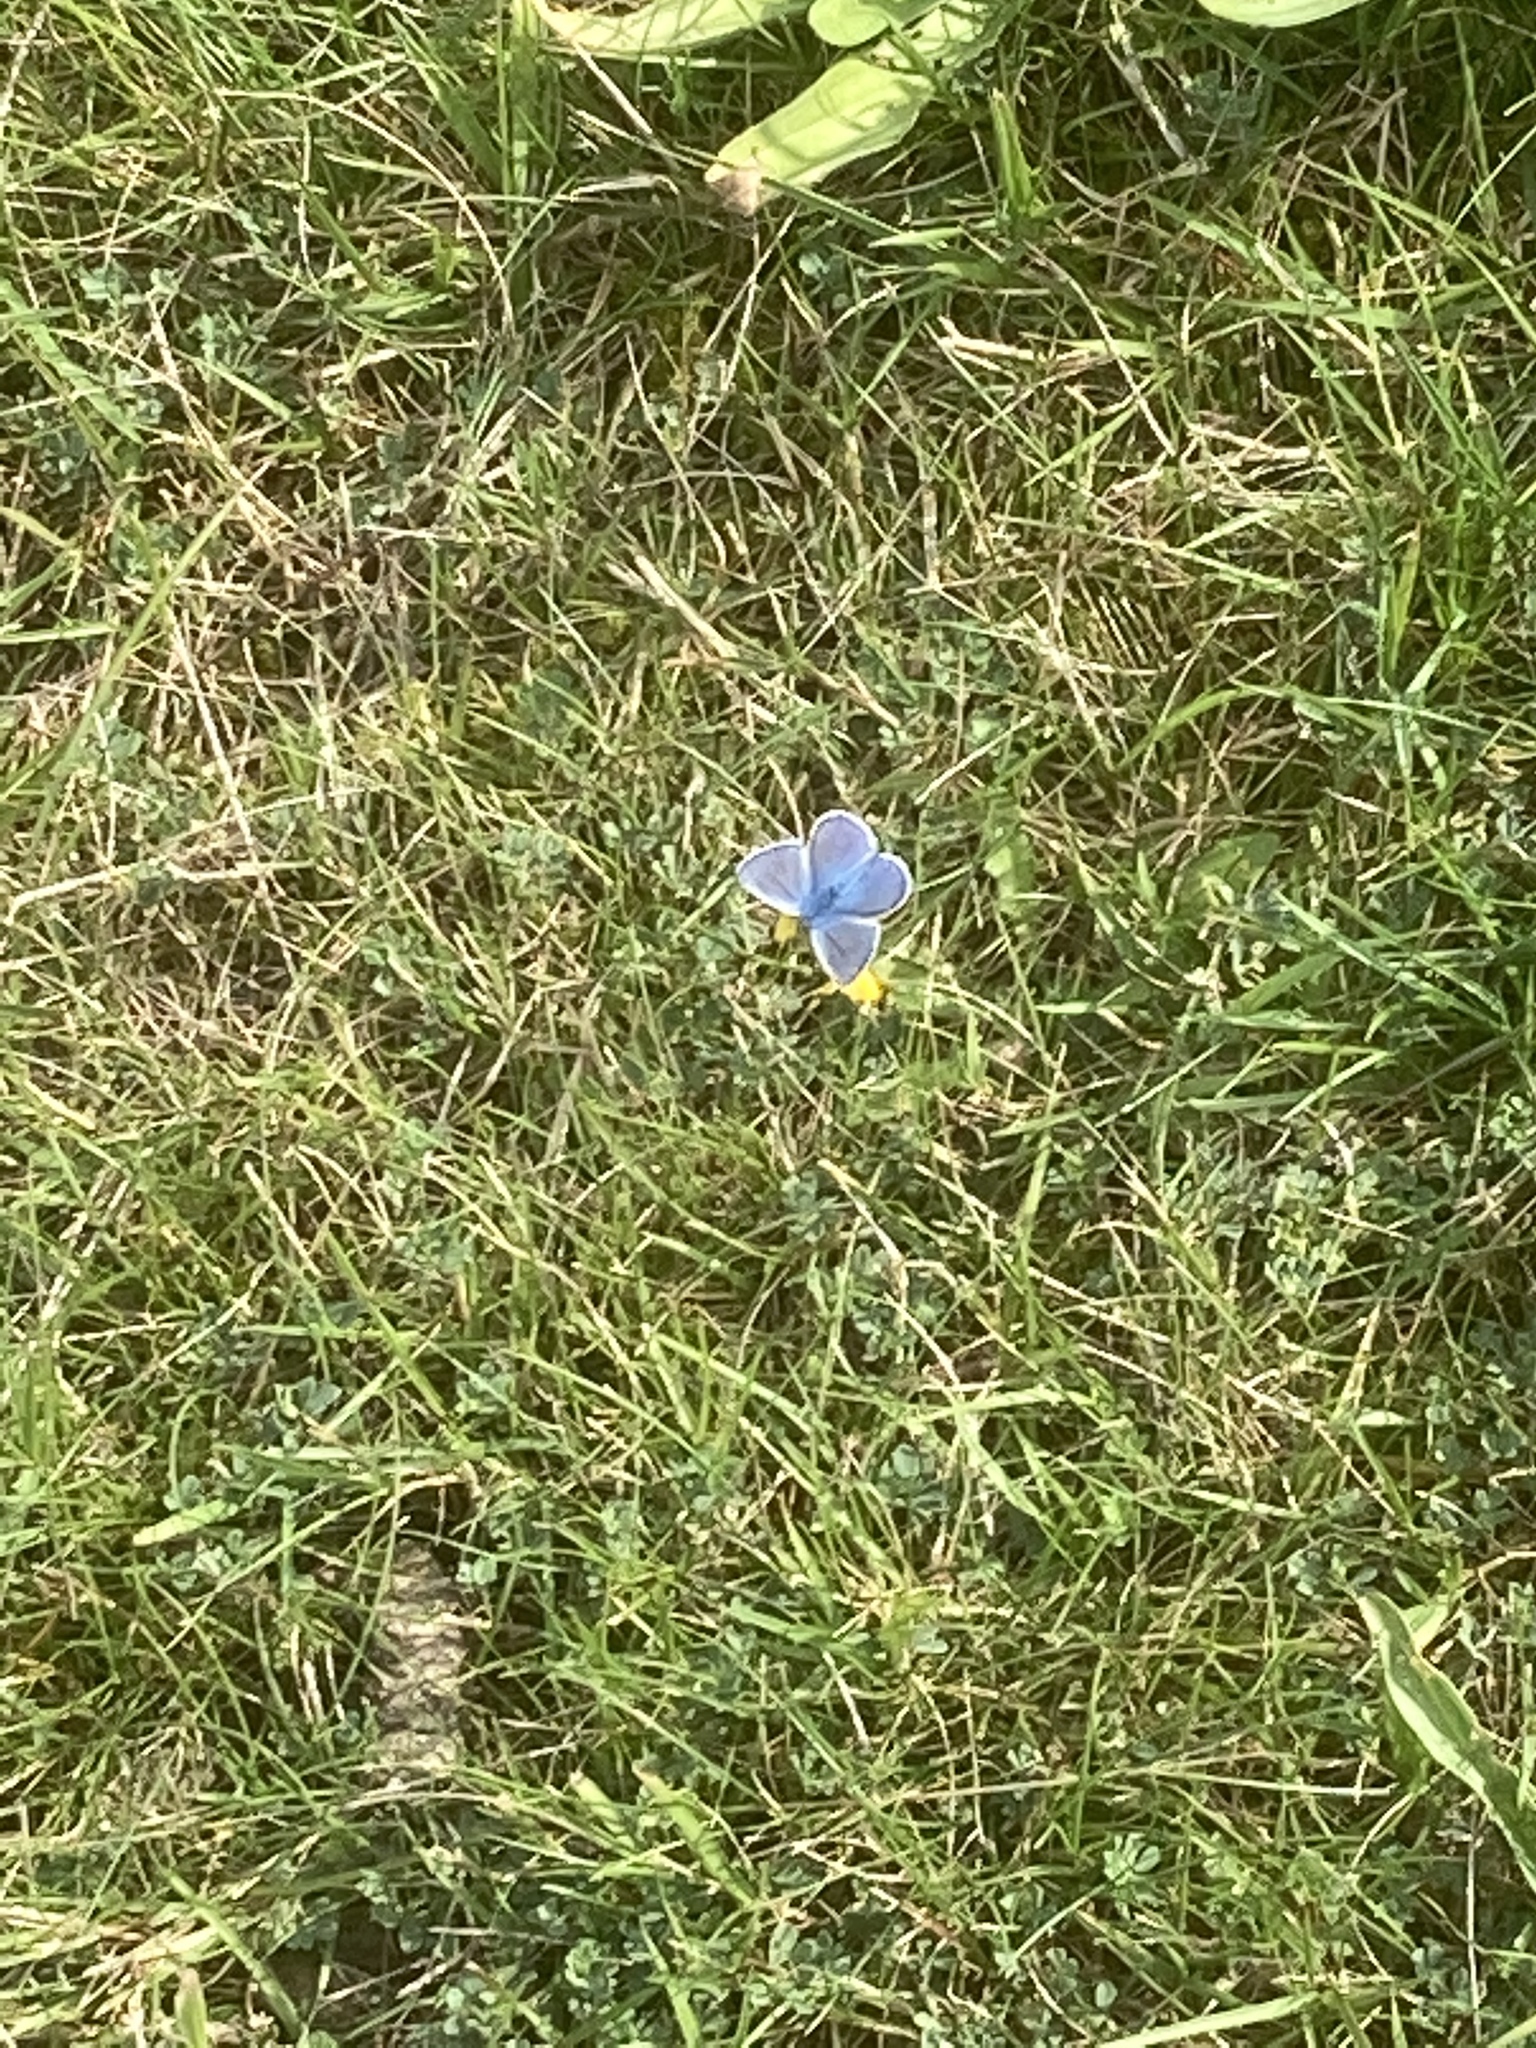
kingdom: Animalia
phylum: Arthropoda
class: Insecta
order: Lepidoptera
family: Lycaenidae
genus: Polyommatus
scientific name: Polyommatus icarus
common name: Common blue
